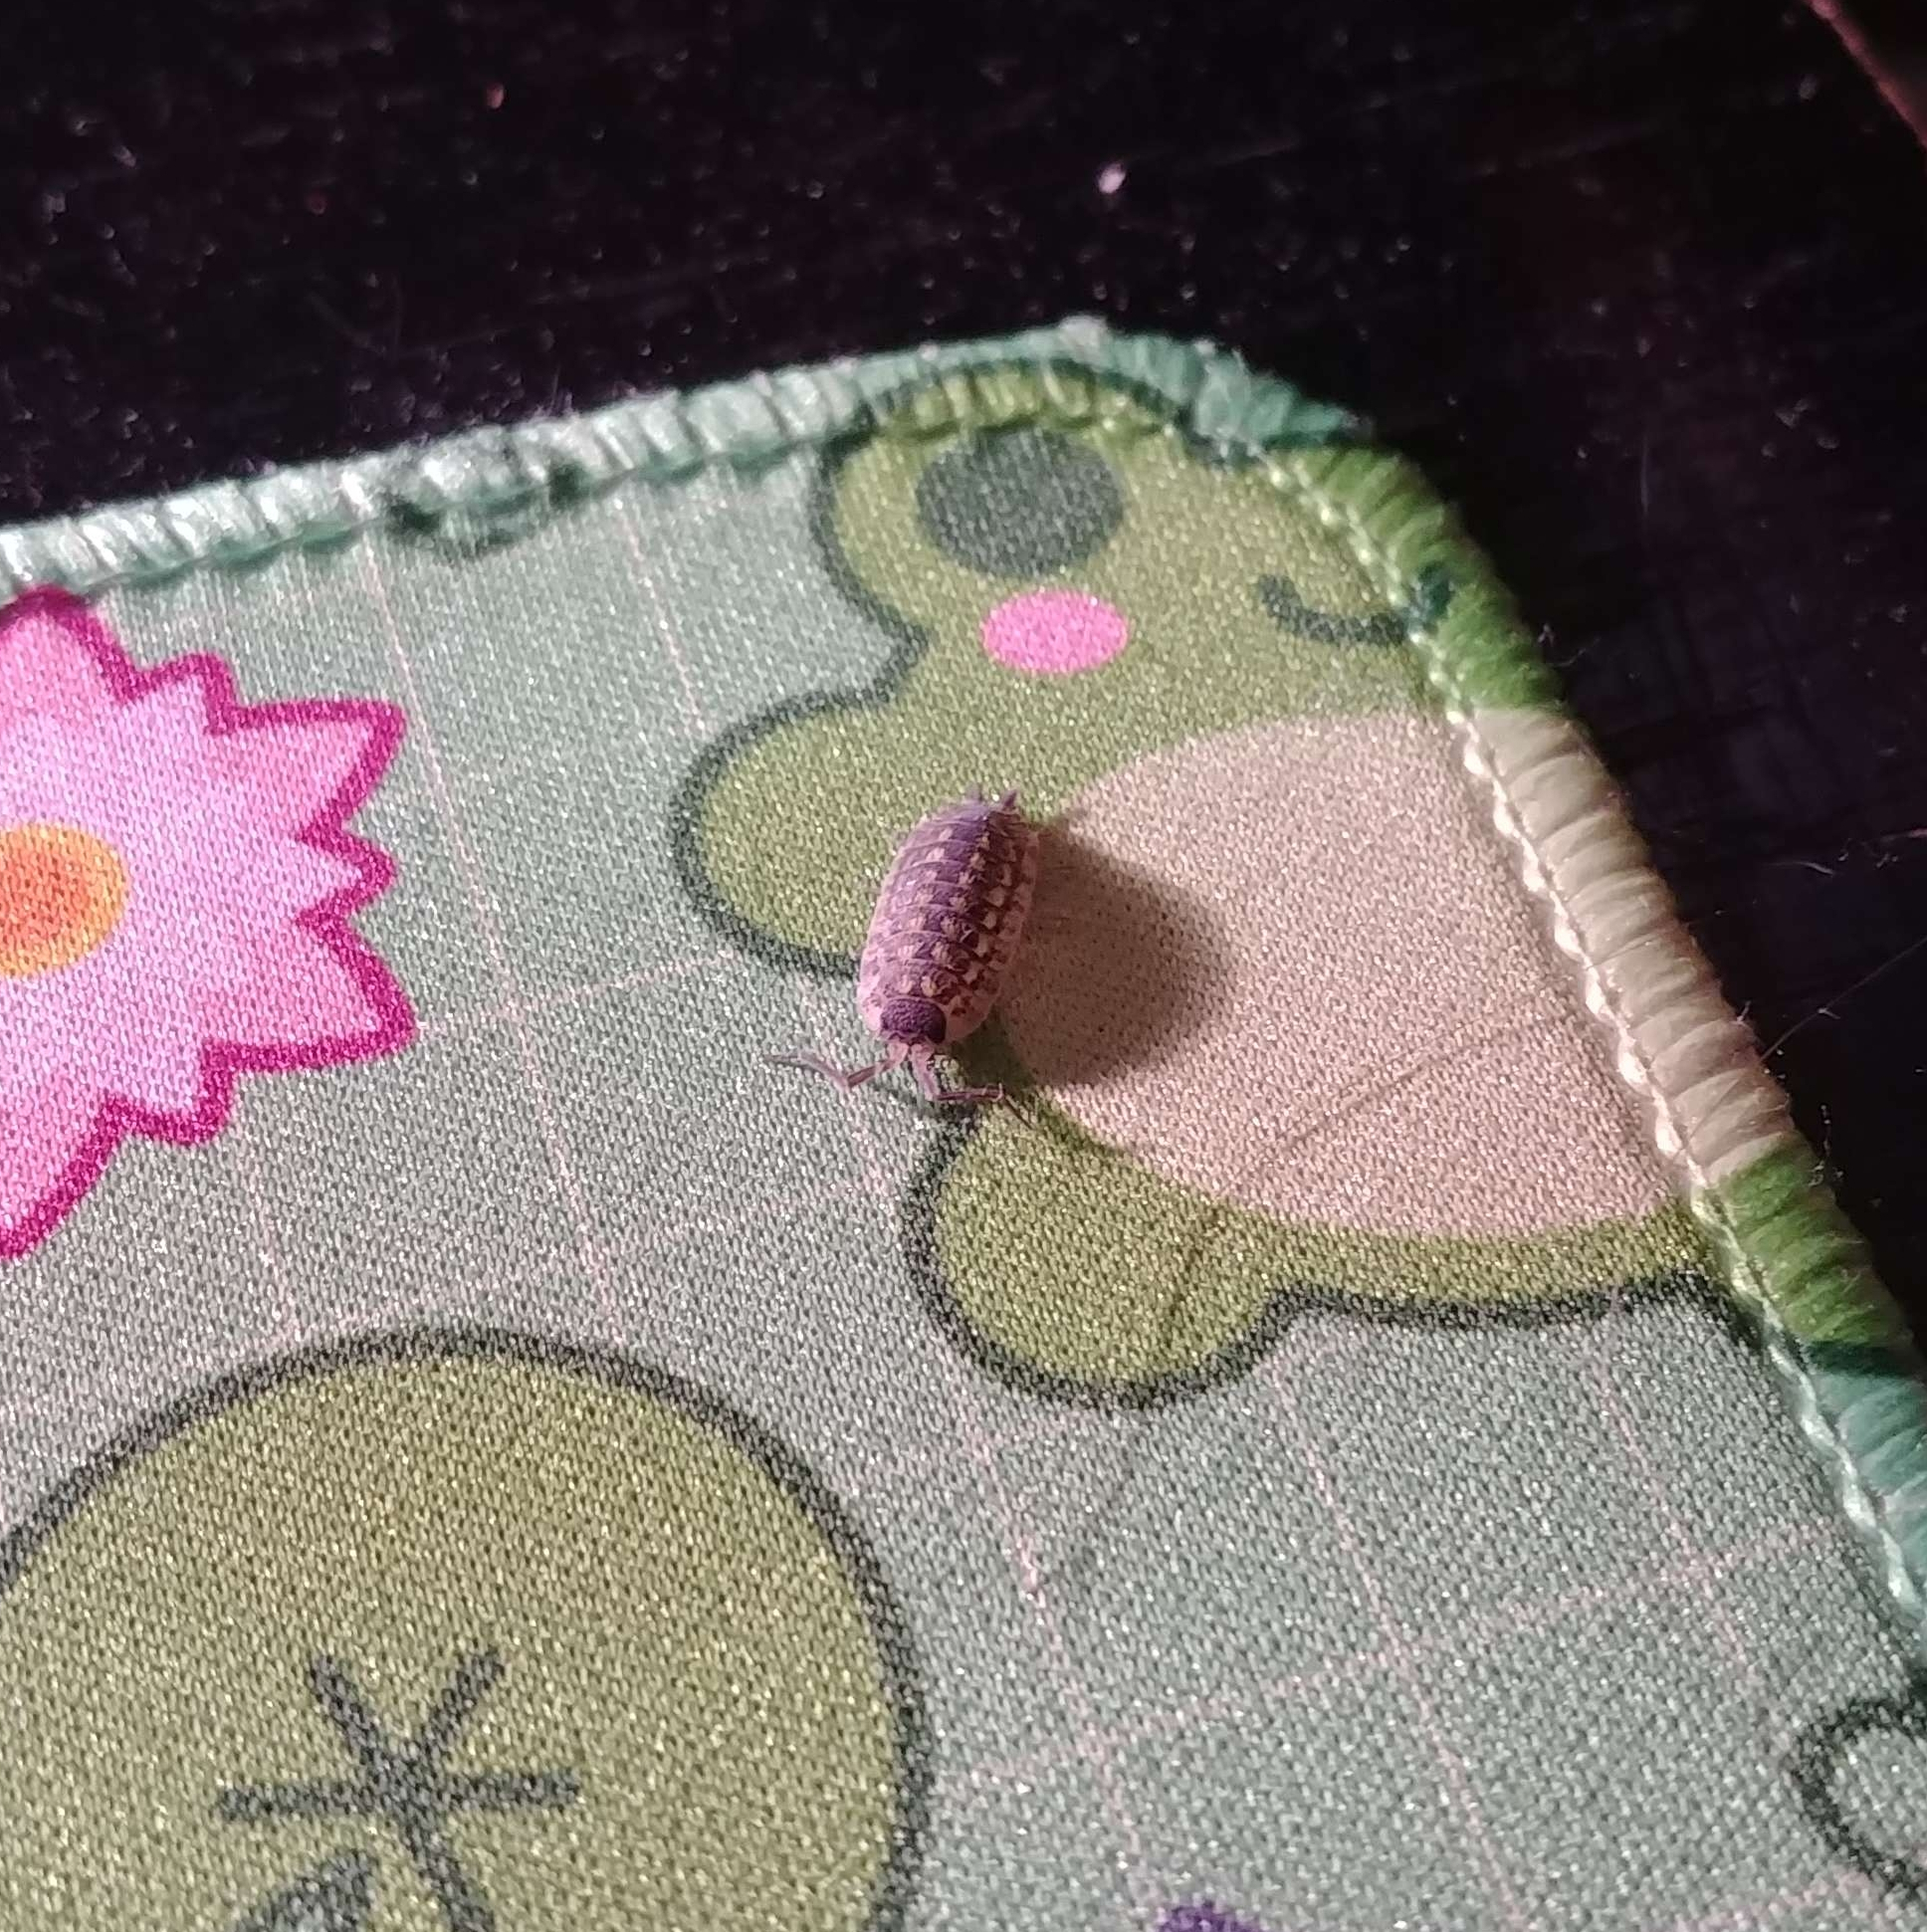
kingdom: Animalia
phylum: Arthropoda
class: Malacostraca
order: Isopoda
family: Porcellionidae
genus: Porcellio
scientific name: Porcellio spinicornis
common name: Painted woodlouse
